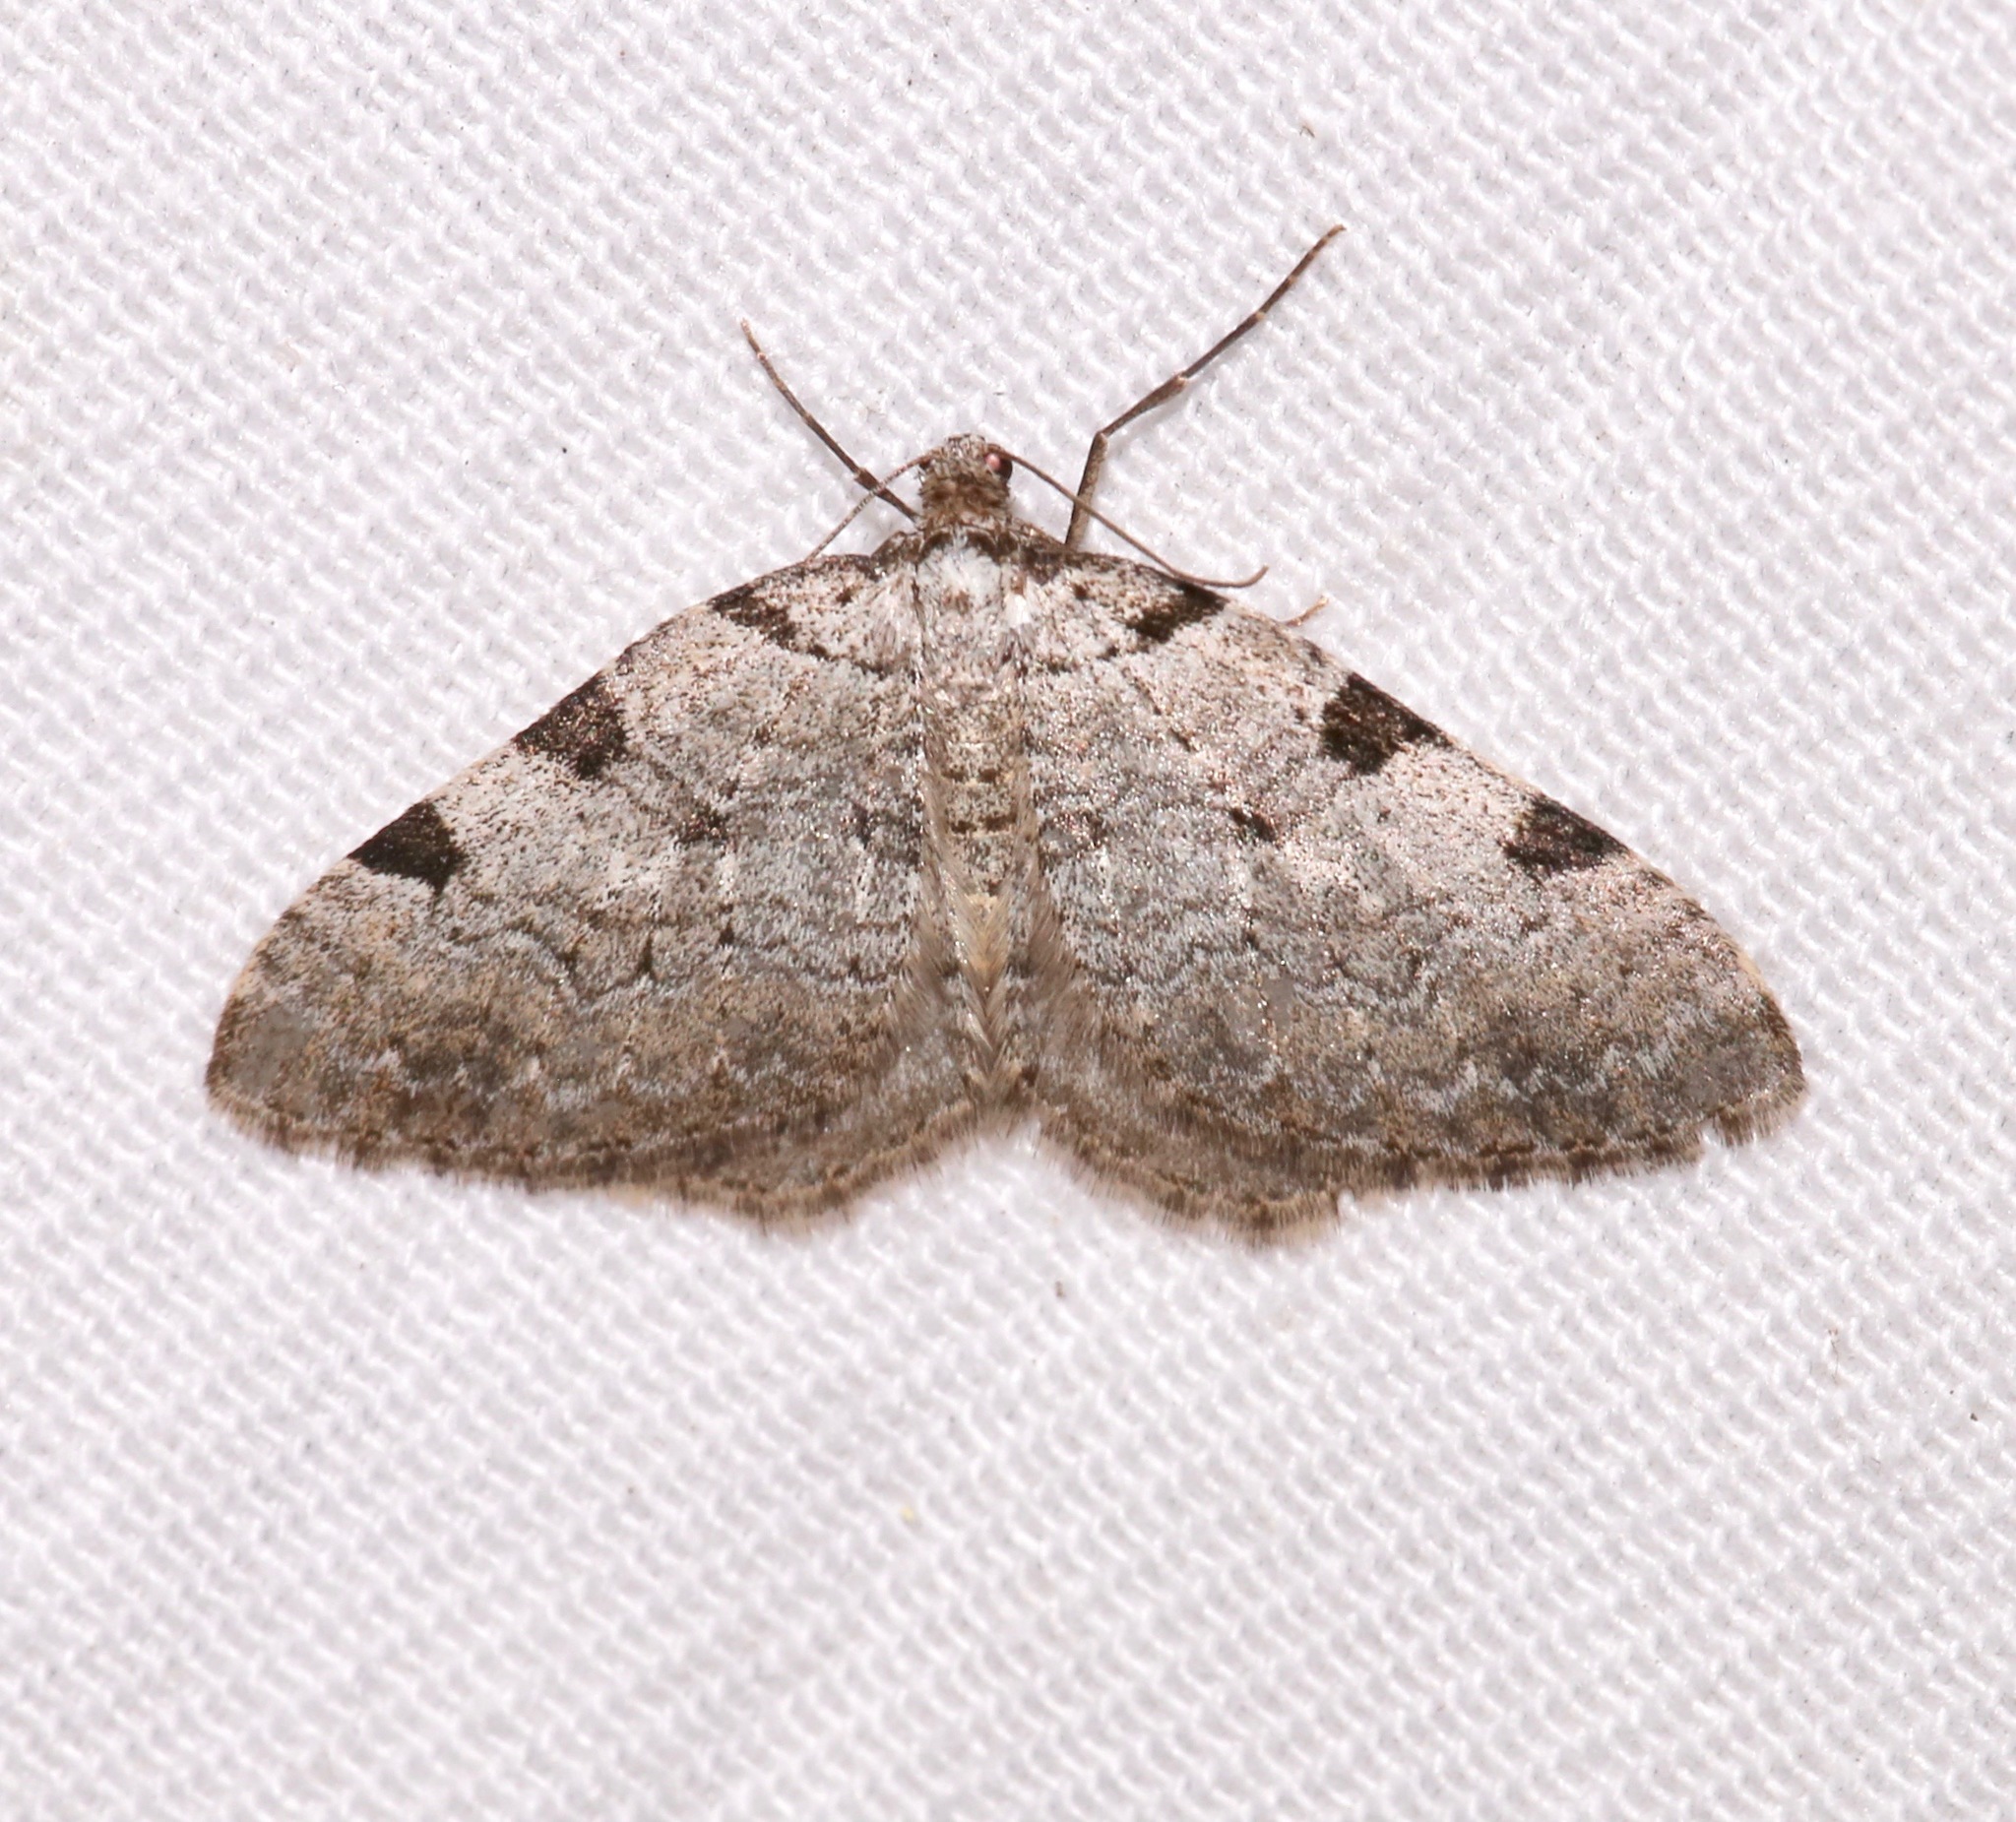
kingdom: Animalia
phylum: Arthropoda
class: Insecta
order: Lepidoptera
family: Geometridae
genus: Perizoma
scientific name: Perizoma costiguttata
